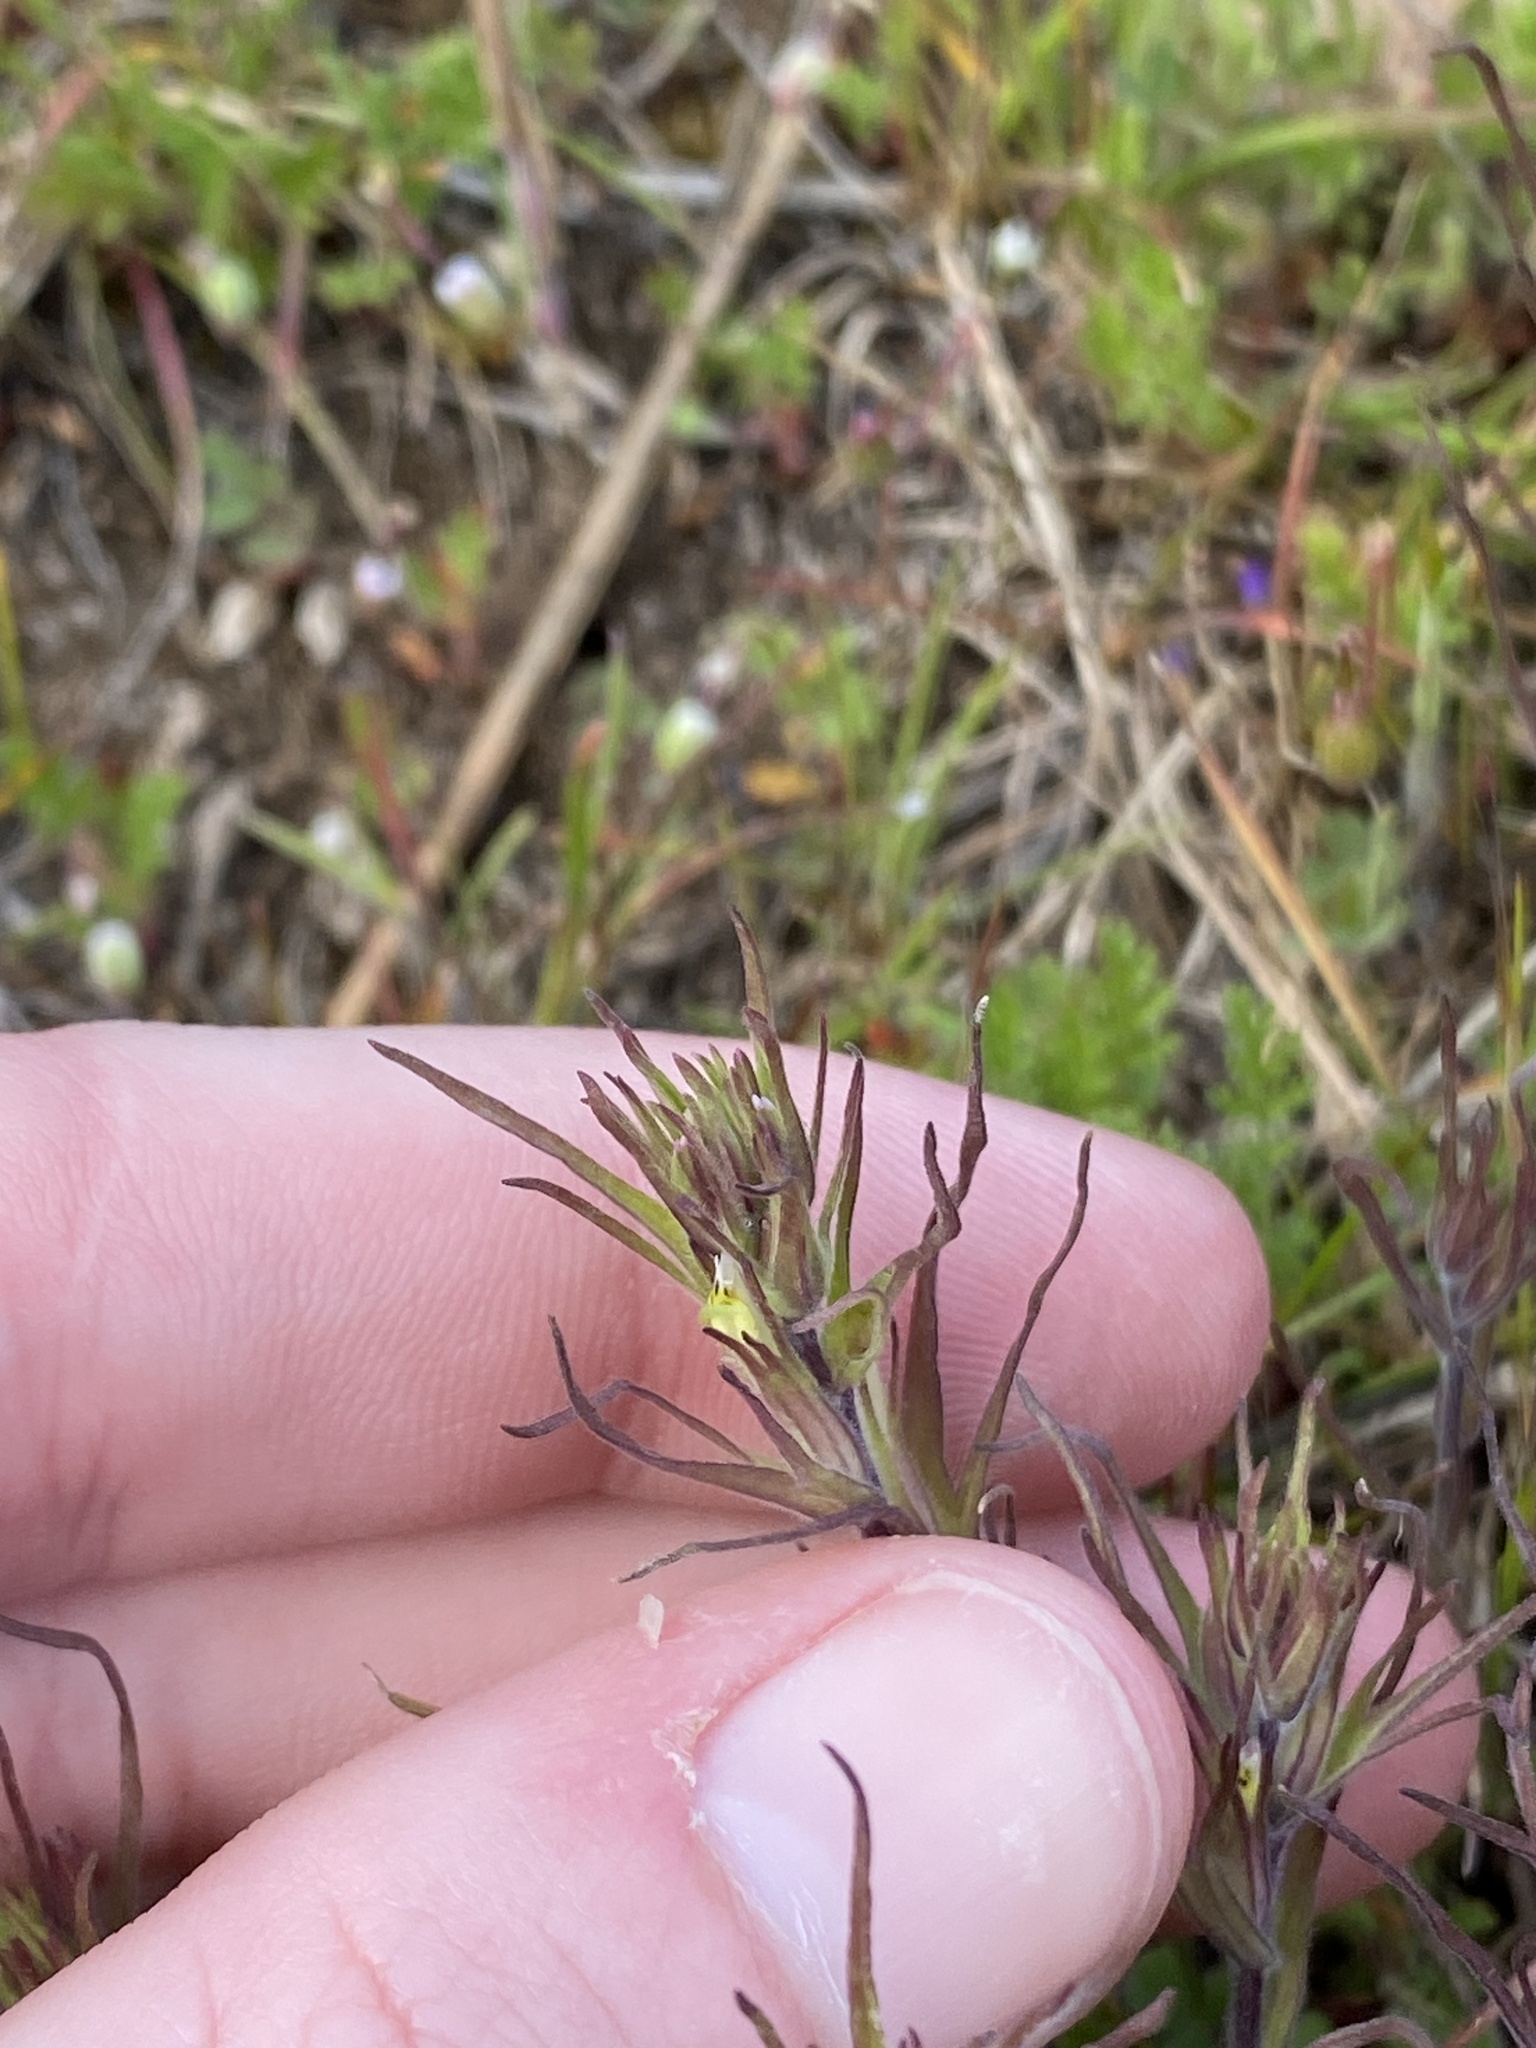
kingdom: Plantae
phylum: Tracheophyta
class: Magnoliopsida
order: Lamiales
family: Orobanchaceae
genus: Triphysaria
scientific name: Triphysaria pusilla
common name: Dwarf false owl-clover
